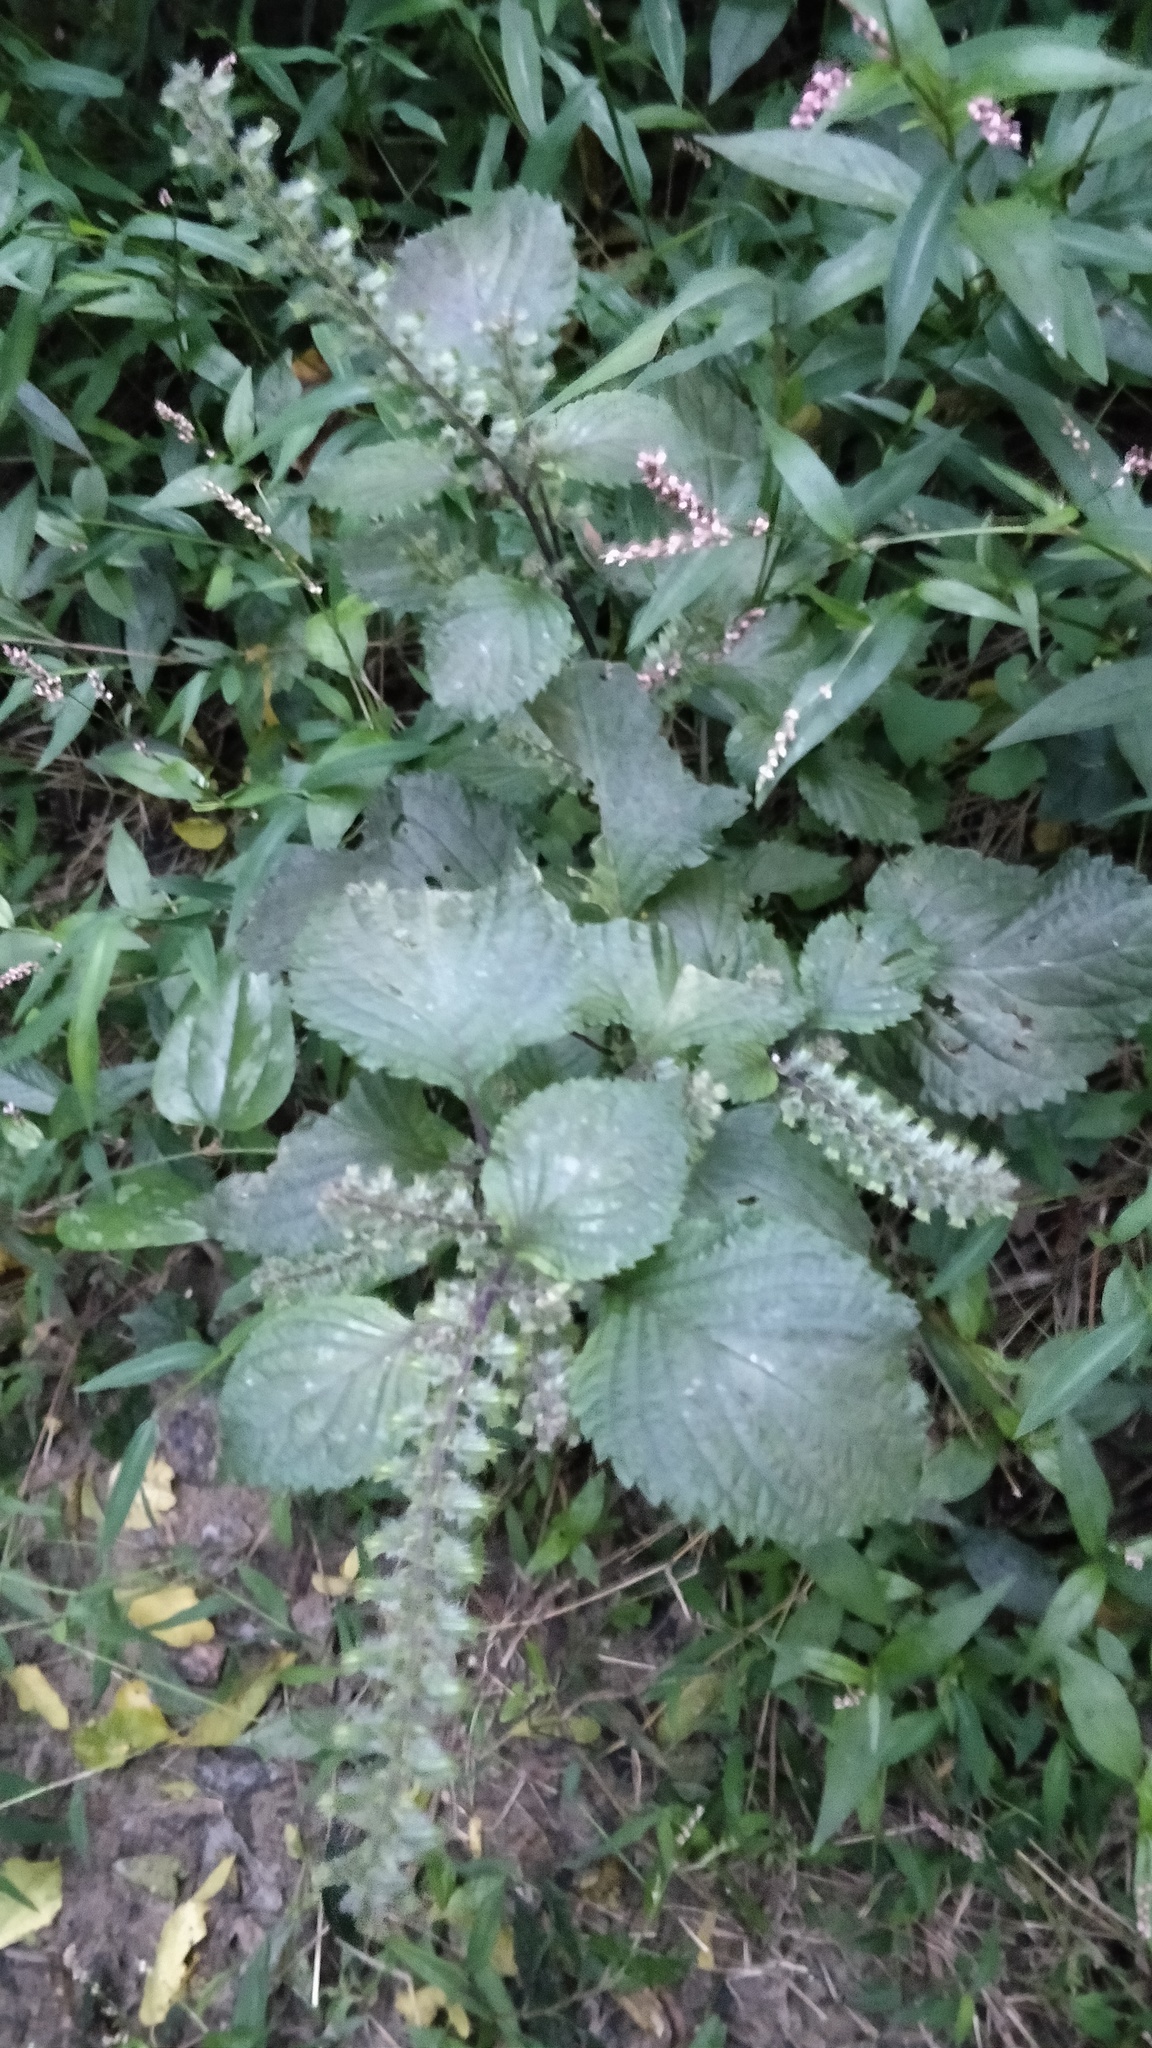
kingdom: Plantae
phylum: Tracheophyta
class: Magnoliopsida
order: Lamiales
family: Lamiaceae
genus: Perilla
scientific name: Perilla frutescens
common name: Perilla
